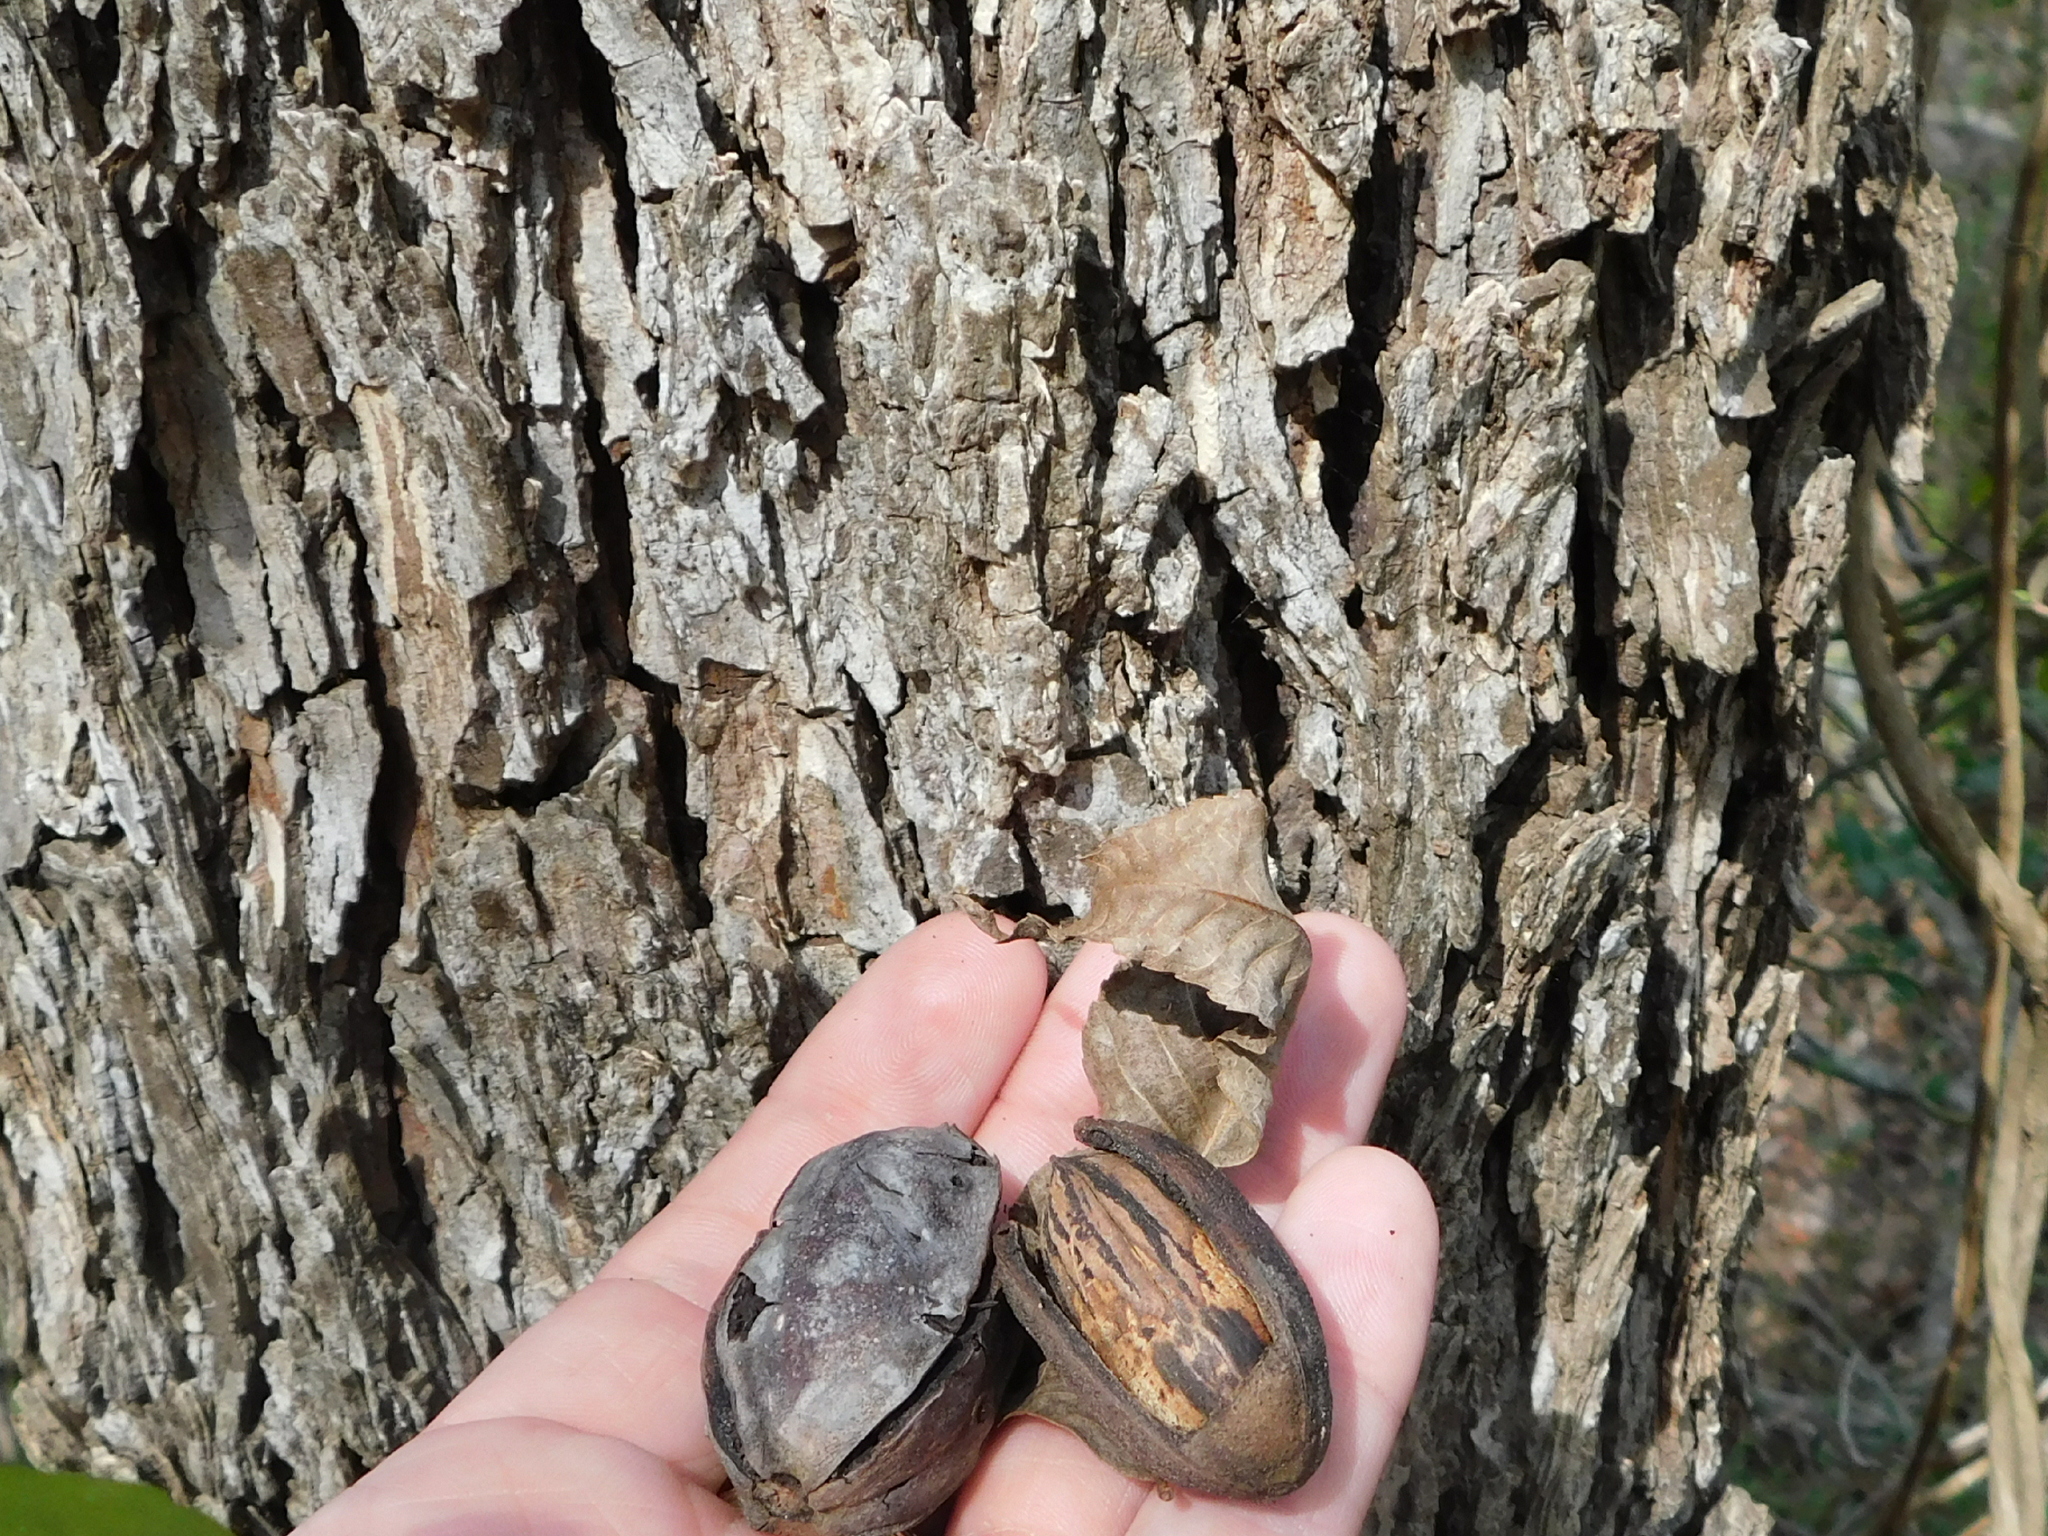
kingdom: Plantae
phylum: Tracheophyta
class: Magnoliopsida
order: Fagales
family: Juglandaceae
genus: Carya
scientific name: Carya illinoinensis
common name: Pecan
